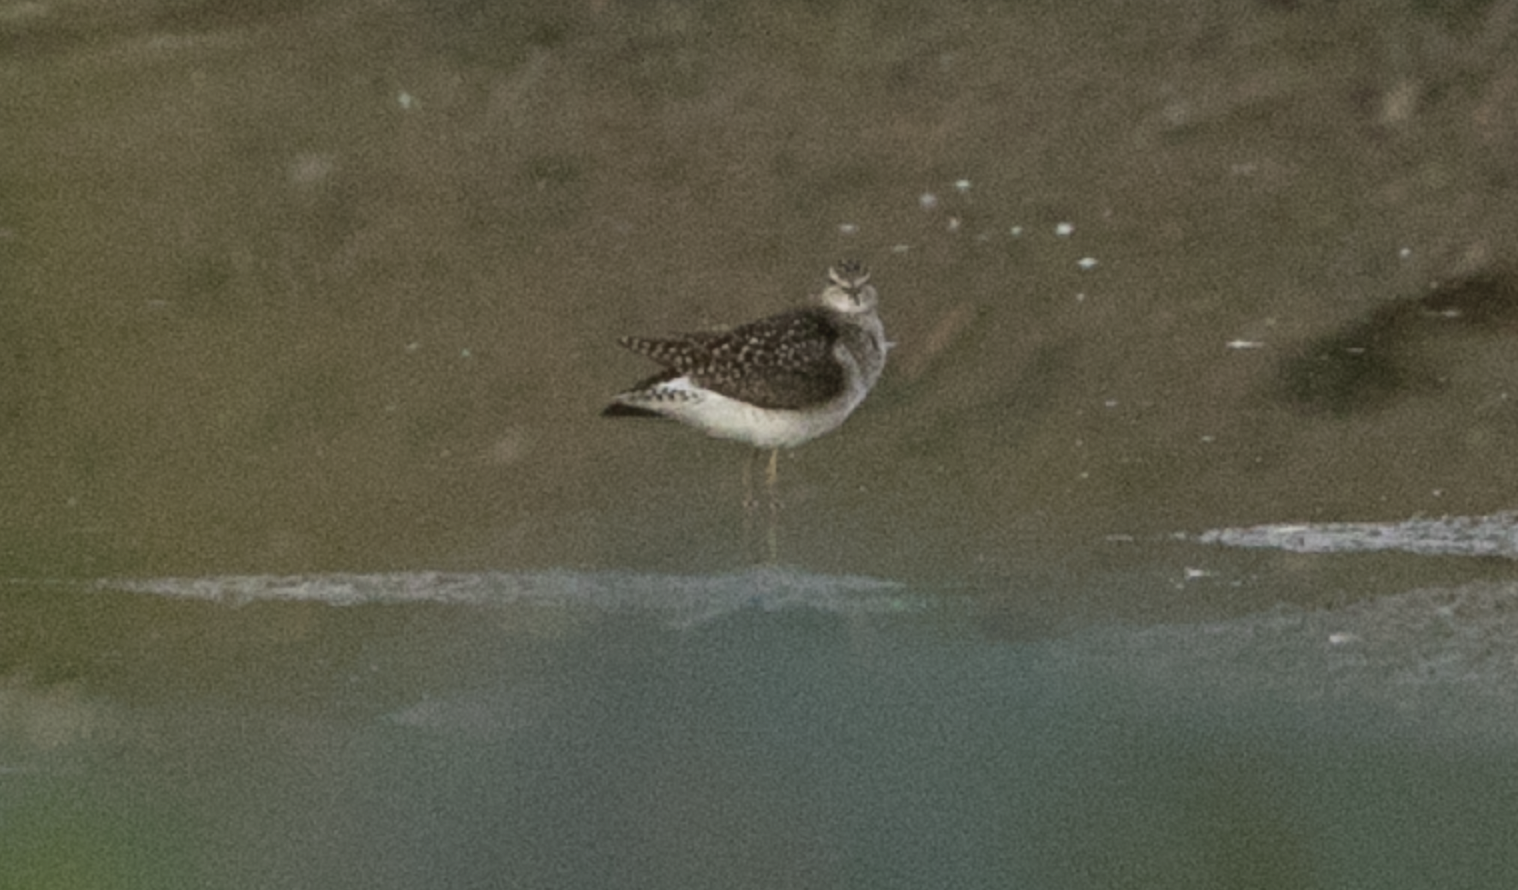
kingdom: Animalia
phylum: Chordata
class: Aves
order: Charadriiformes
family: Scolopacidae
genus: Tringa
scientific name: Tringa glareola
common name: Wood sandpiper
